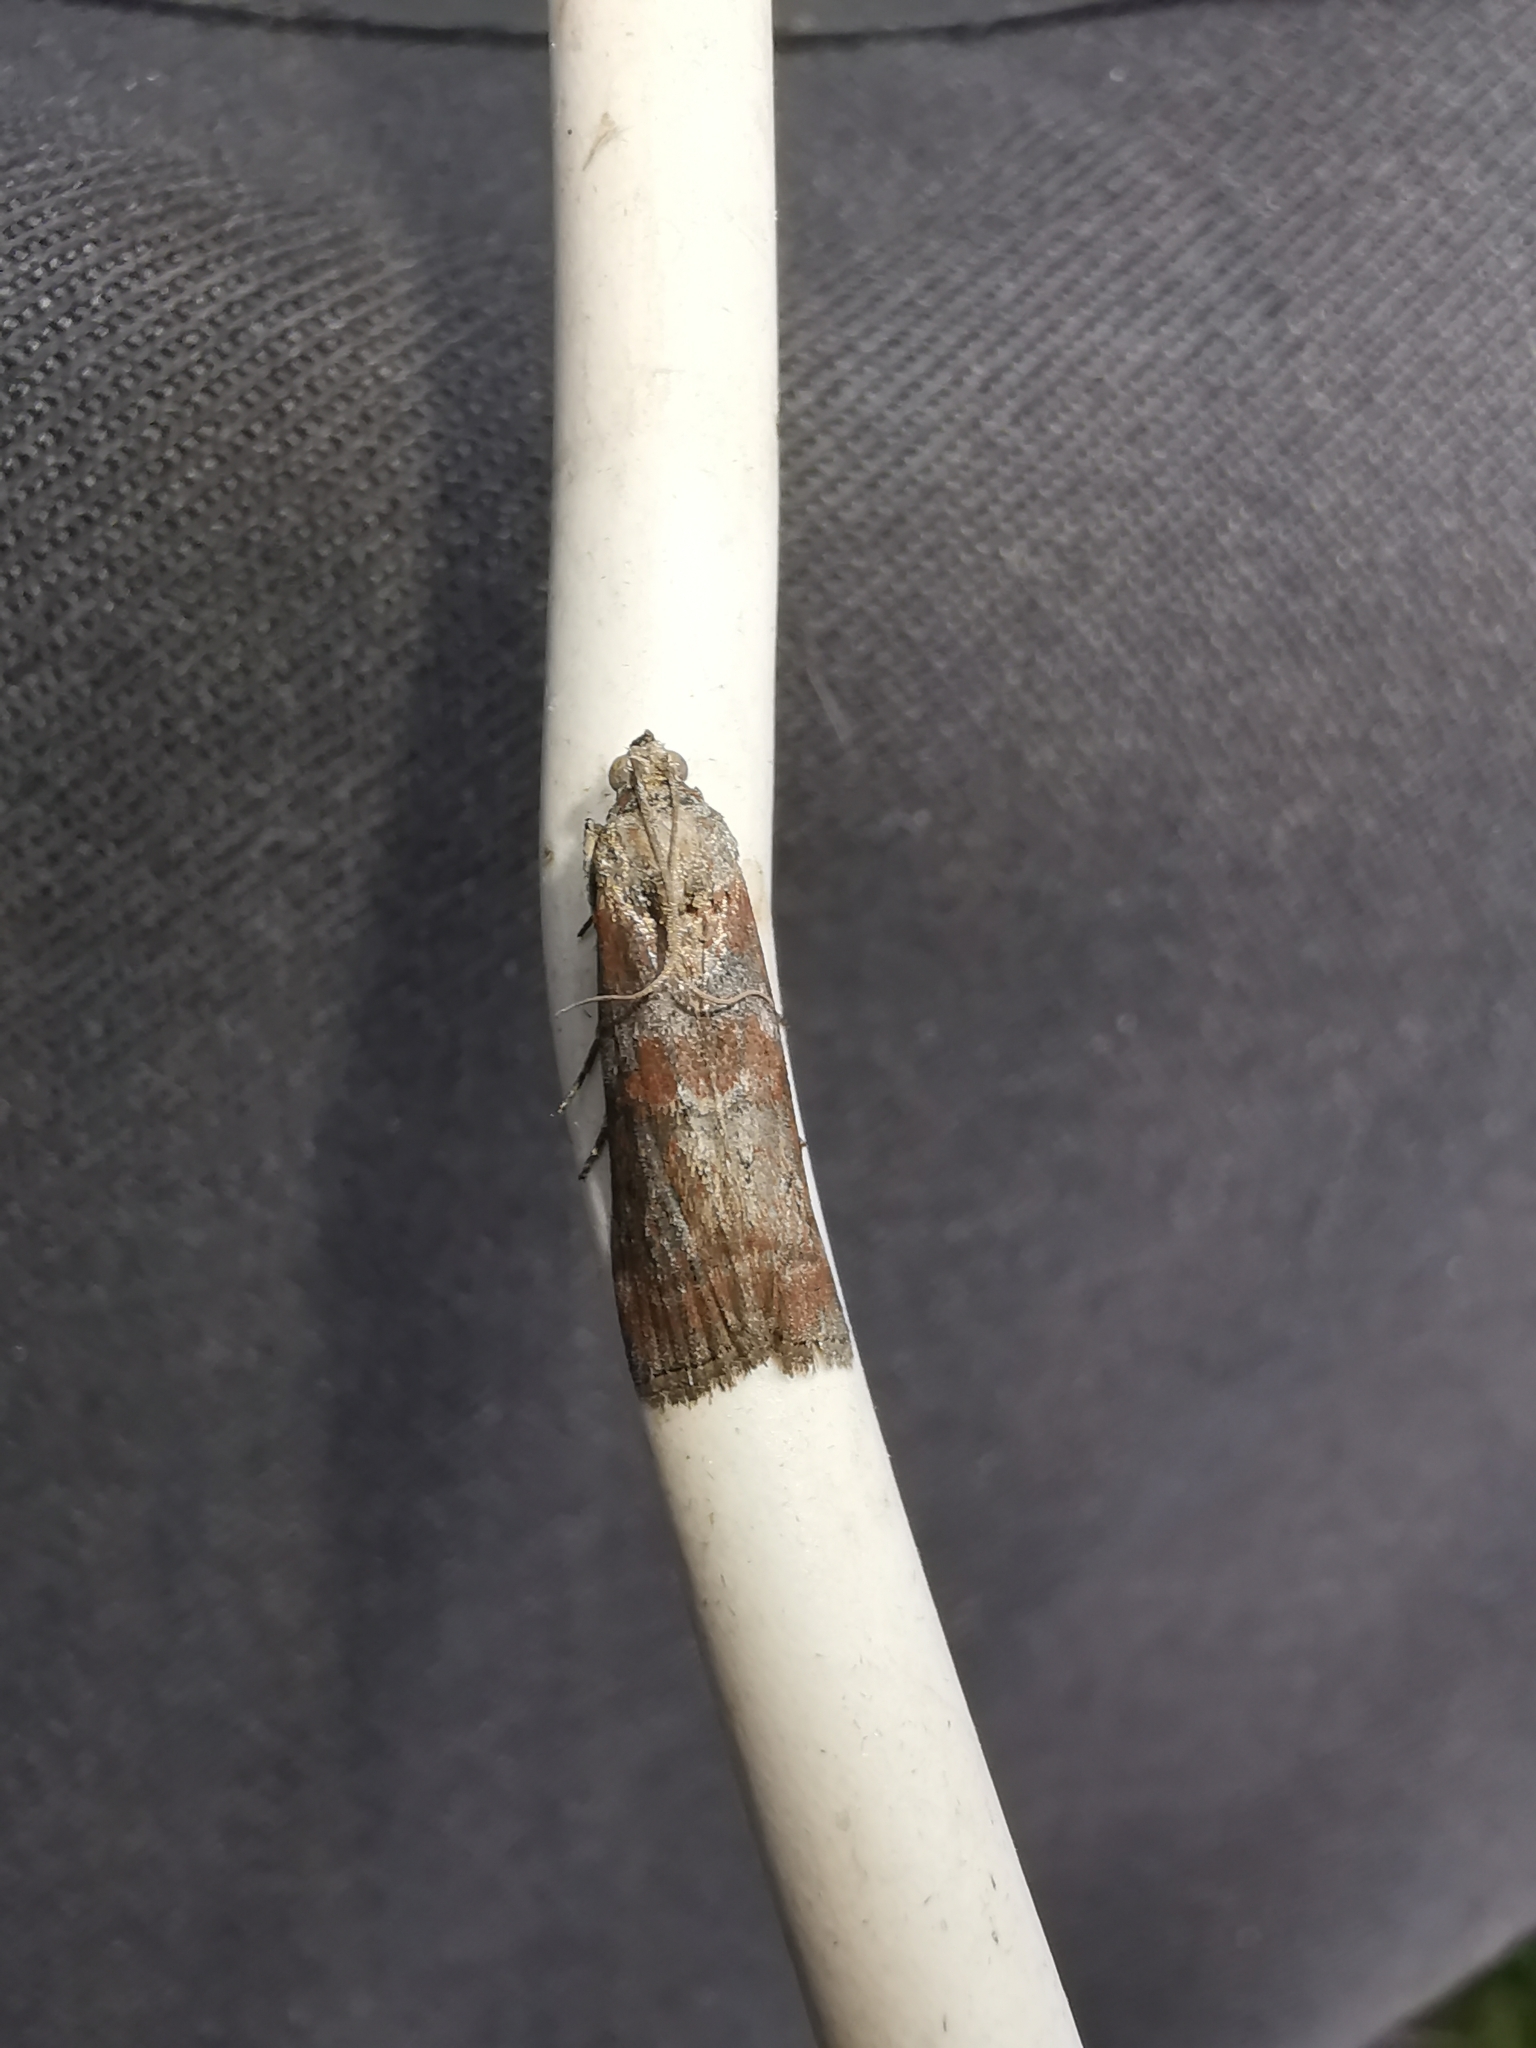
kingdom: Animalia
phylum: Arthropoda
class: Insecta
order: Lepidoptera
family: Pyralidae
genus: Phycita
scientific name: Phycita roborella
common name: Dotted oak knot-horn
